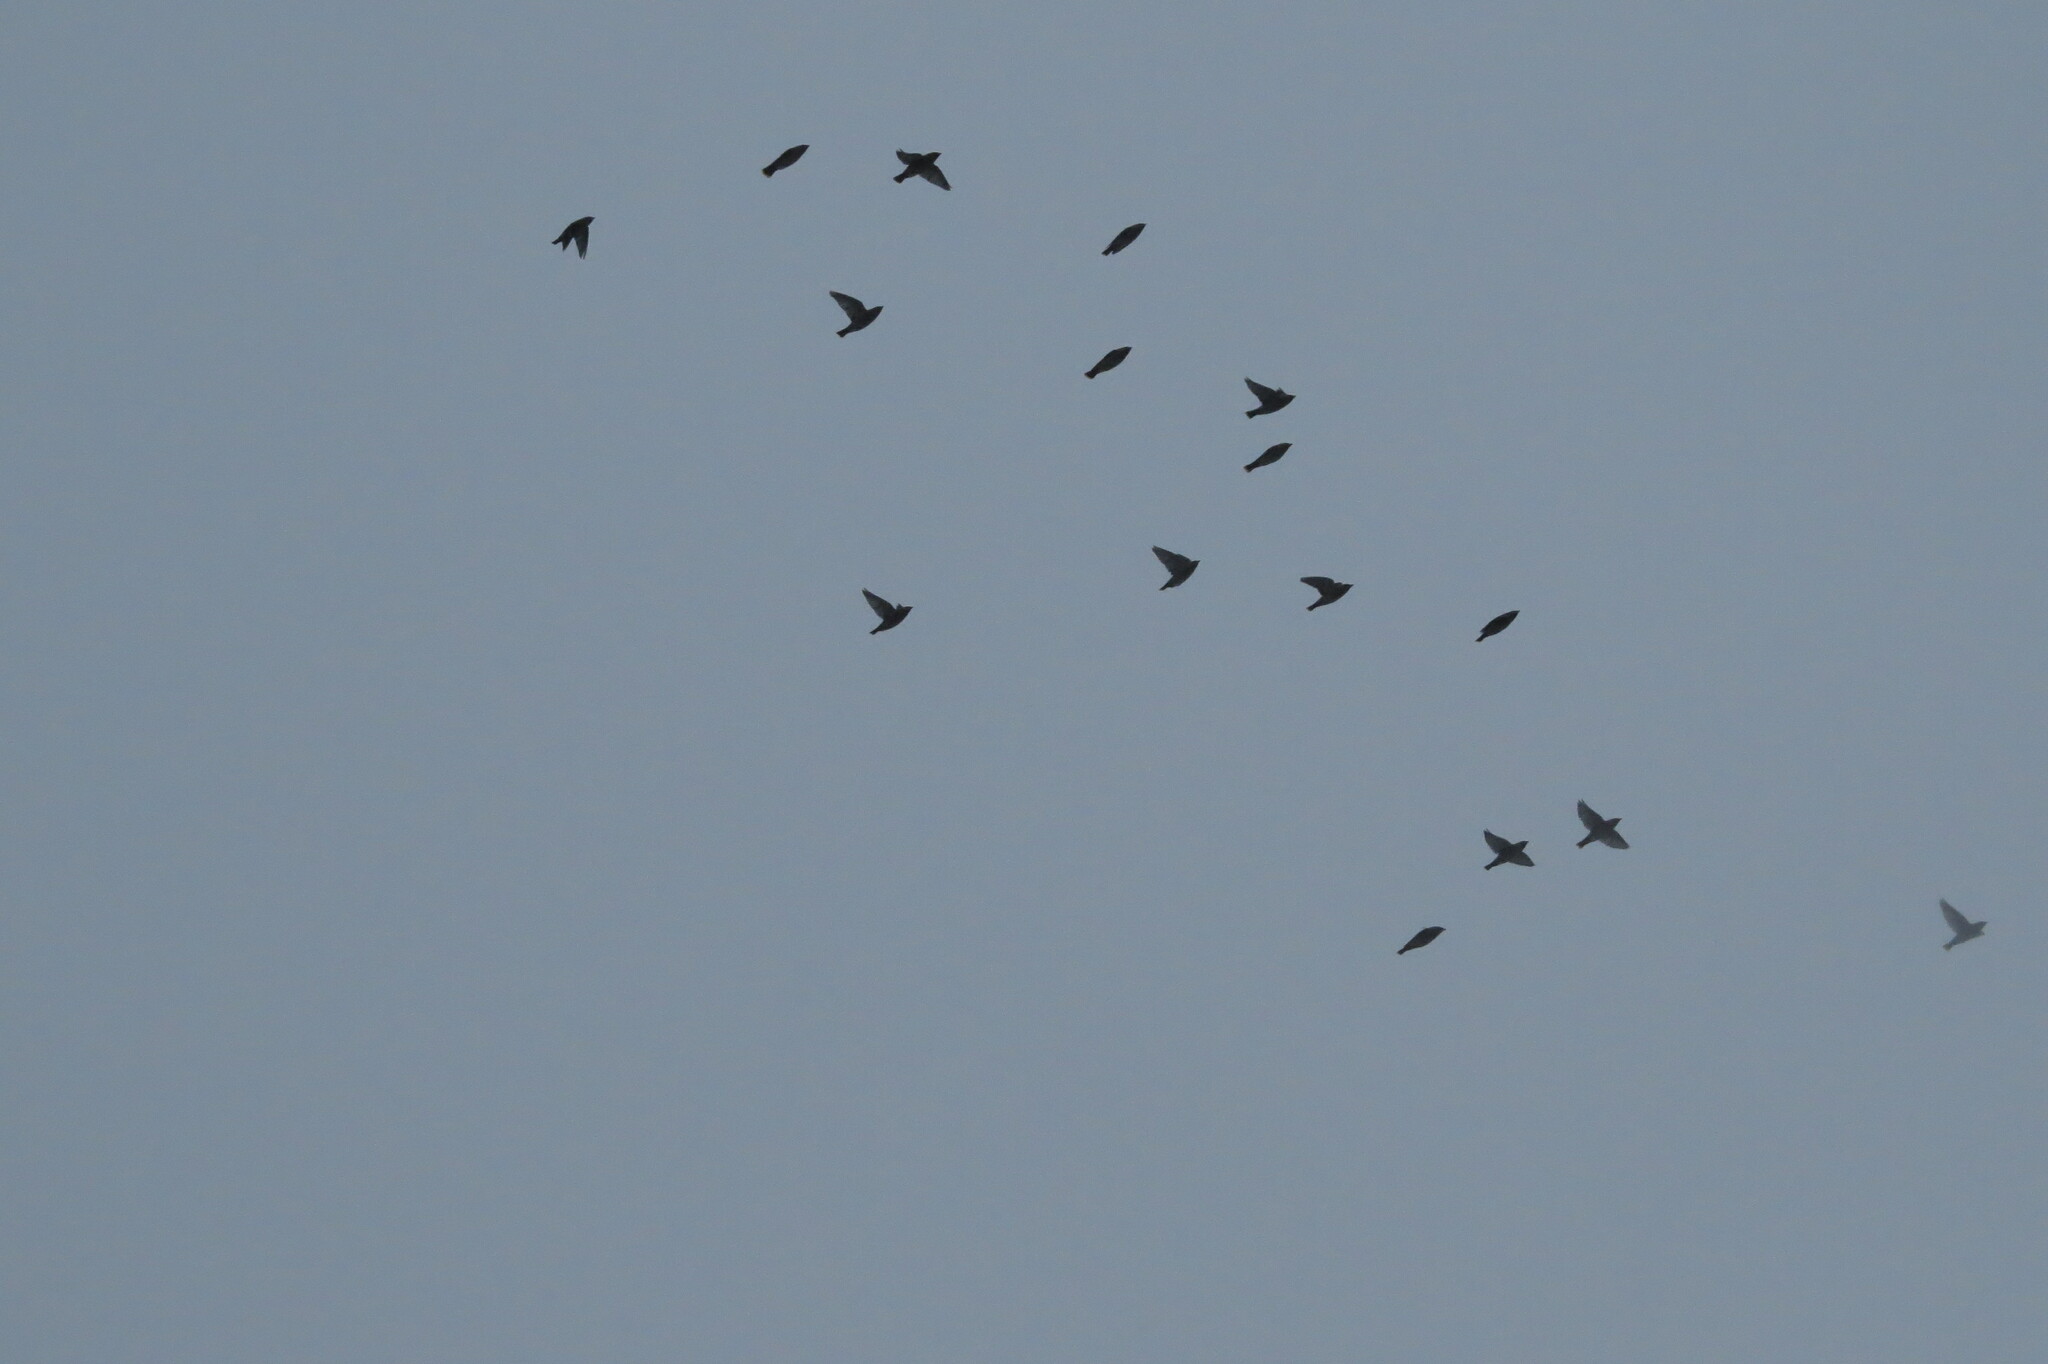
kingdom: Animalia
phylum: Chordata
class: Aves
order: Passeriformes
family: Bombycillidae
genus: Bombycilla
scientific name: Bombycilla garrulus
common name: Bohemian waxwing
